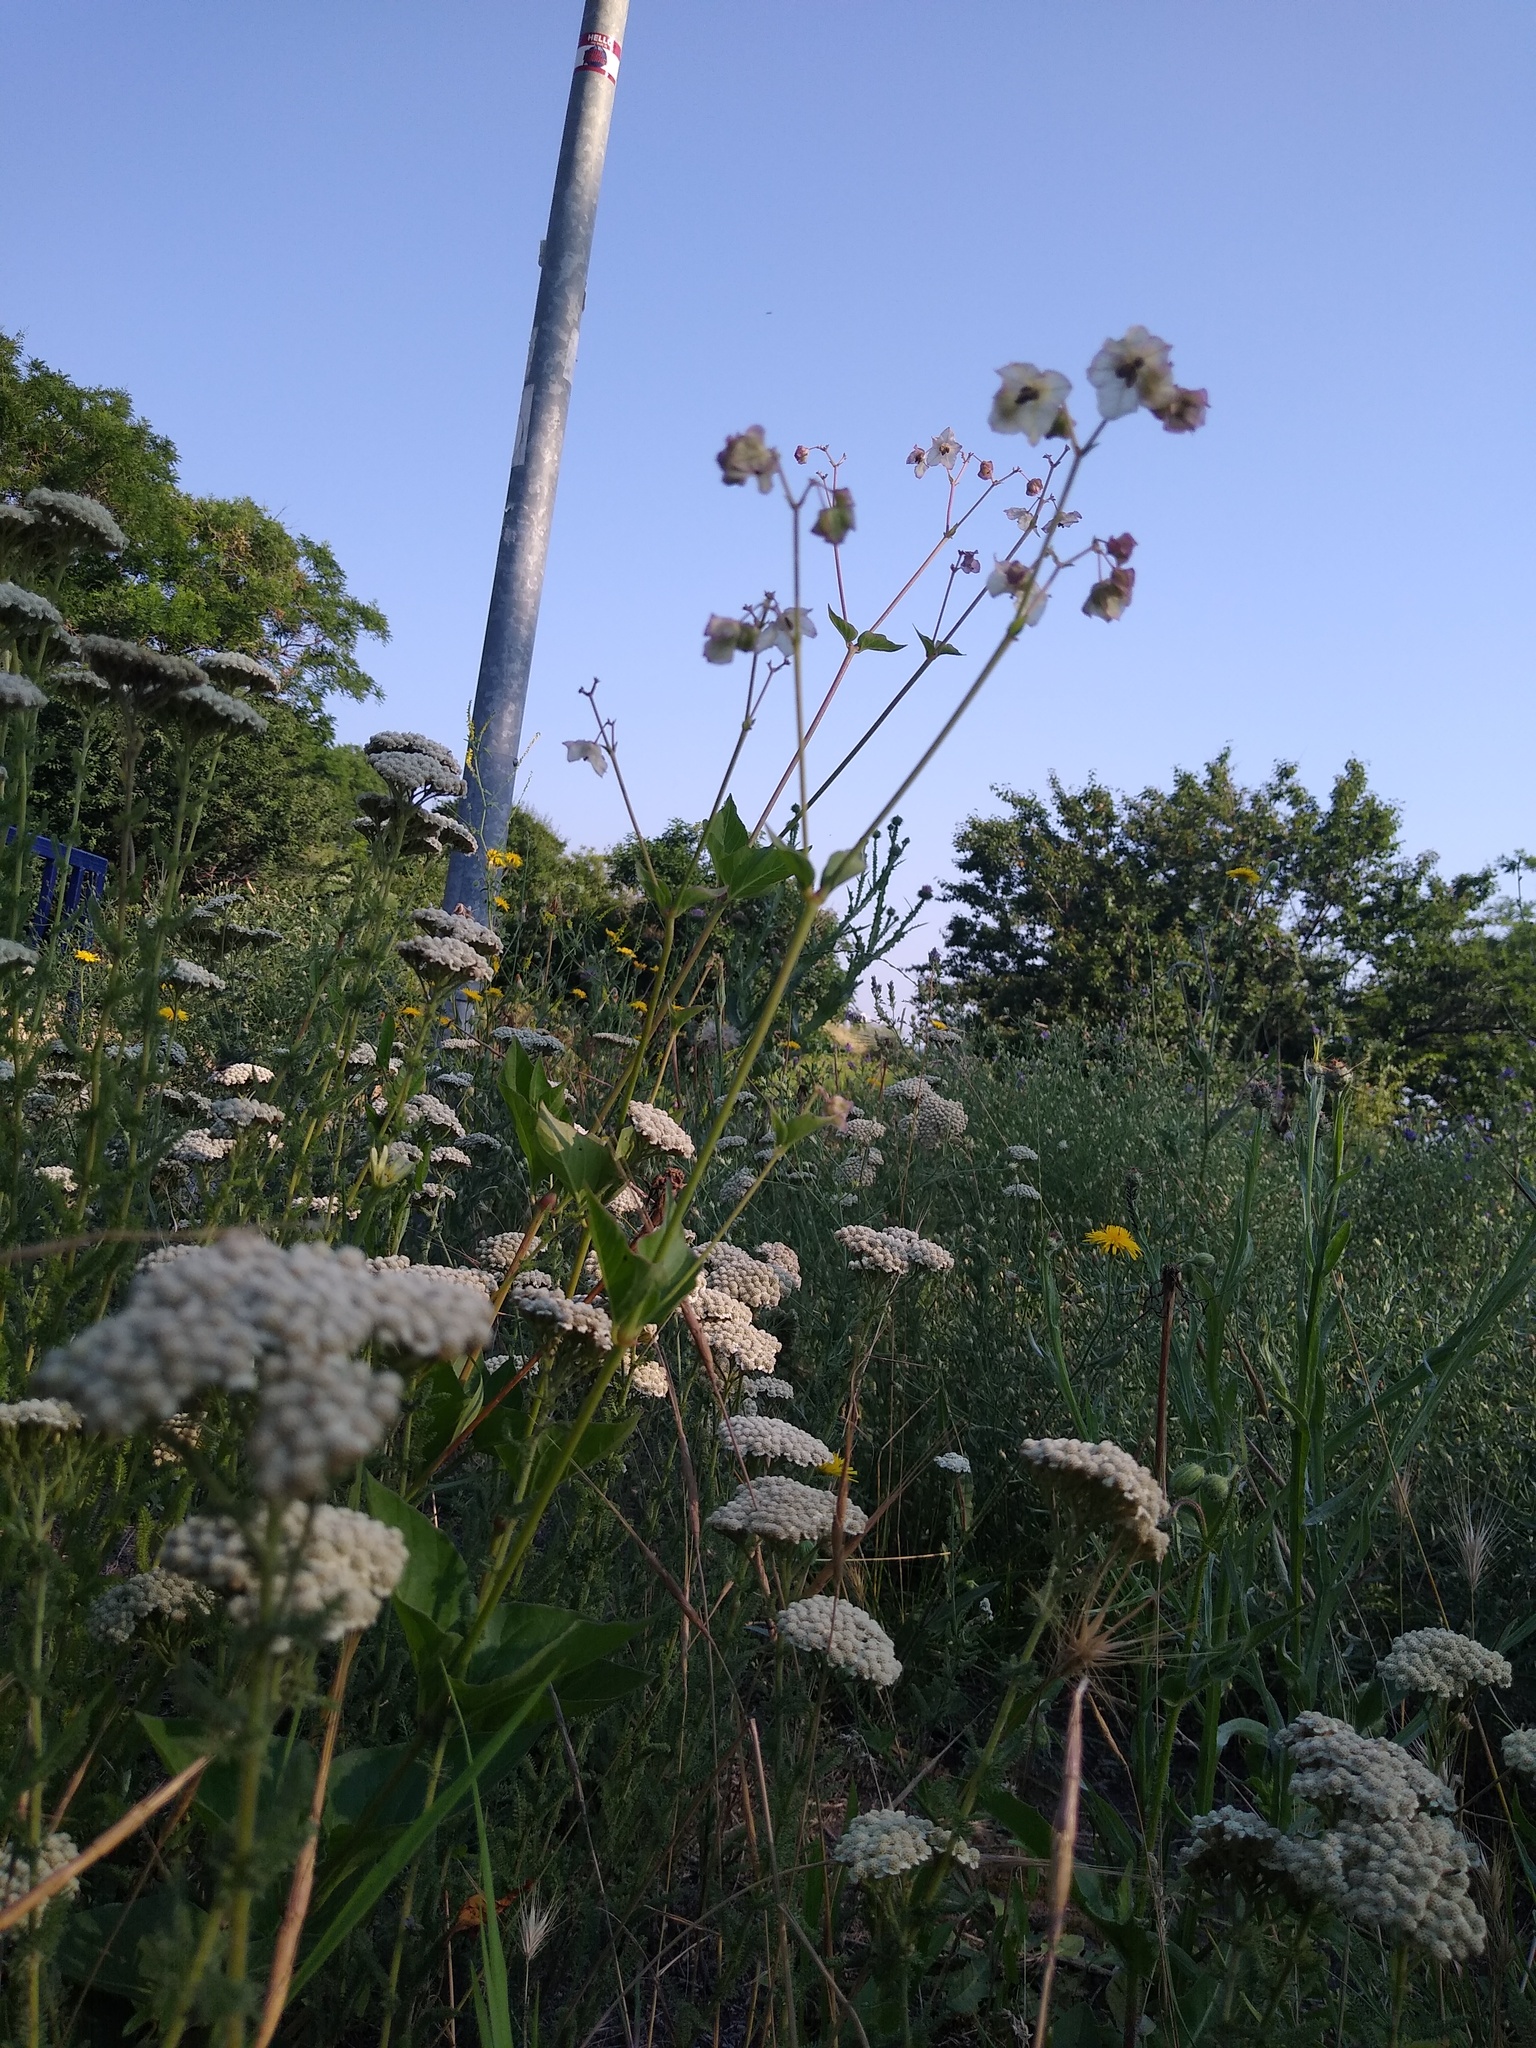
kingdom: Plantae
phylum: Tracheophyta
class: Magnoliopsida
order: Caryophyllales
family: Nyctaginaceae
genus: Mirabilis
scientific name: Mirabilis nyctaginea
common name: Umbrella wort
